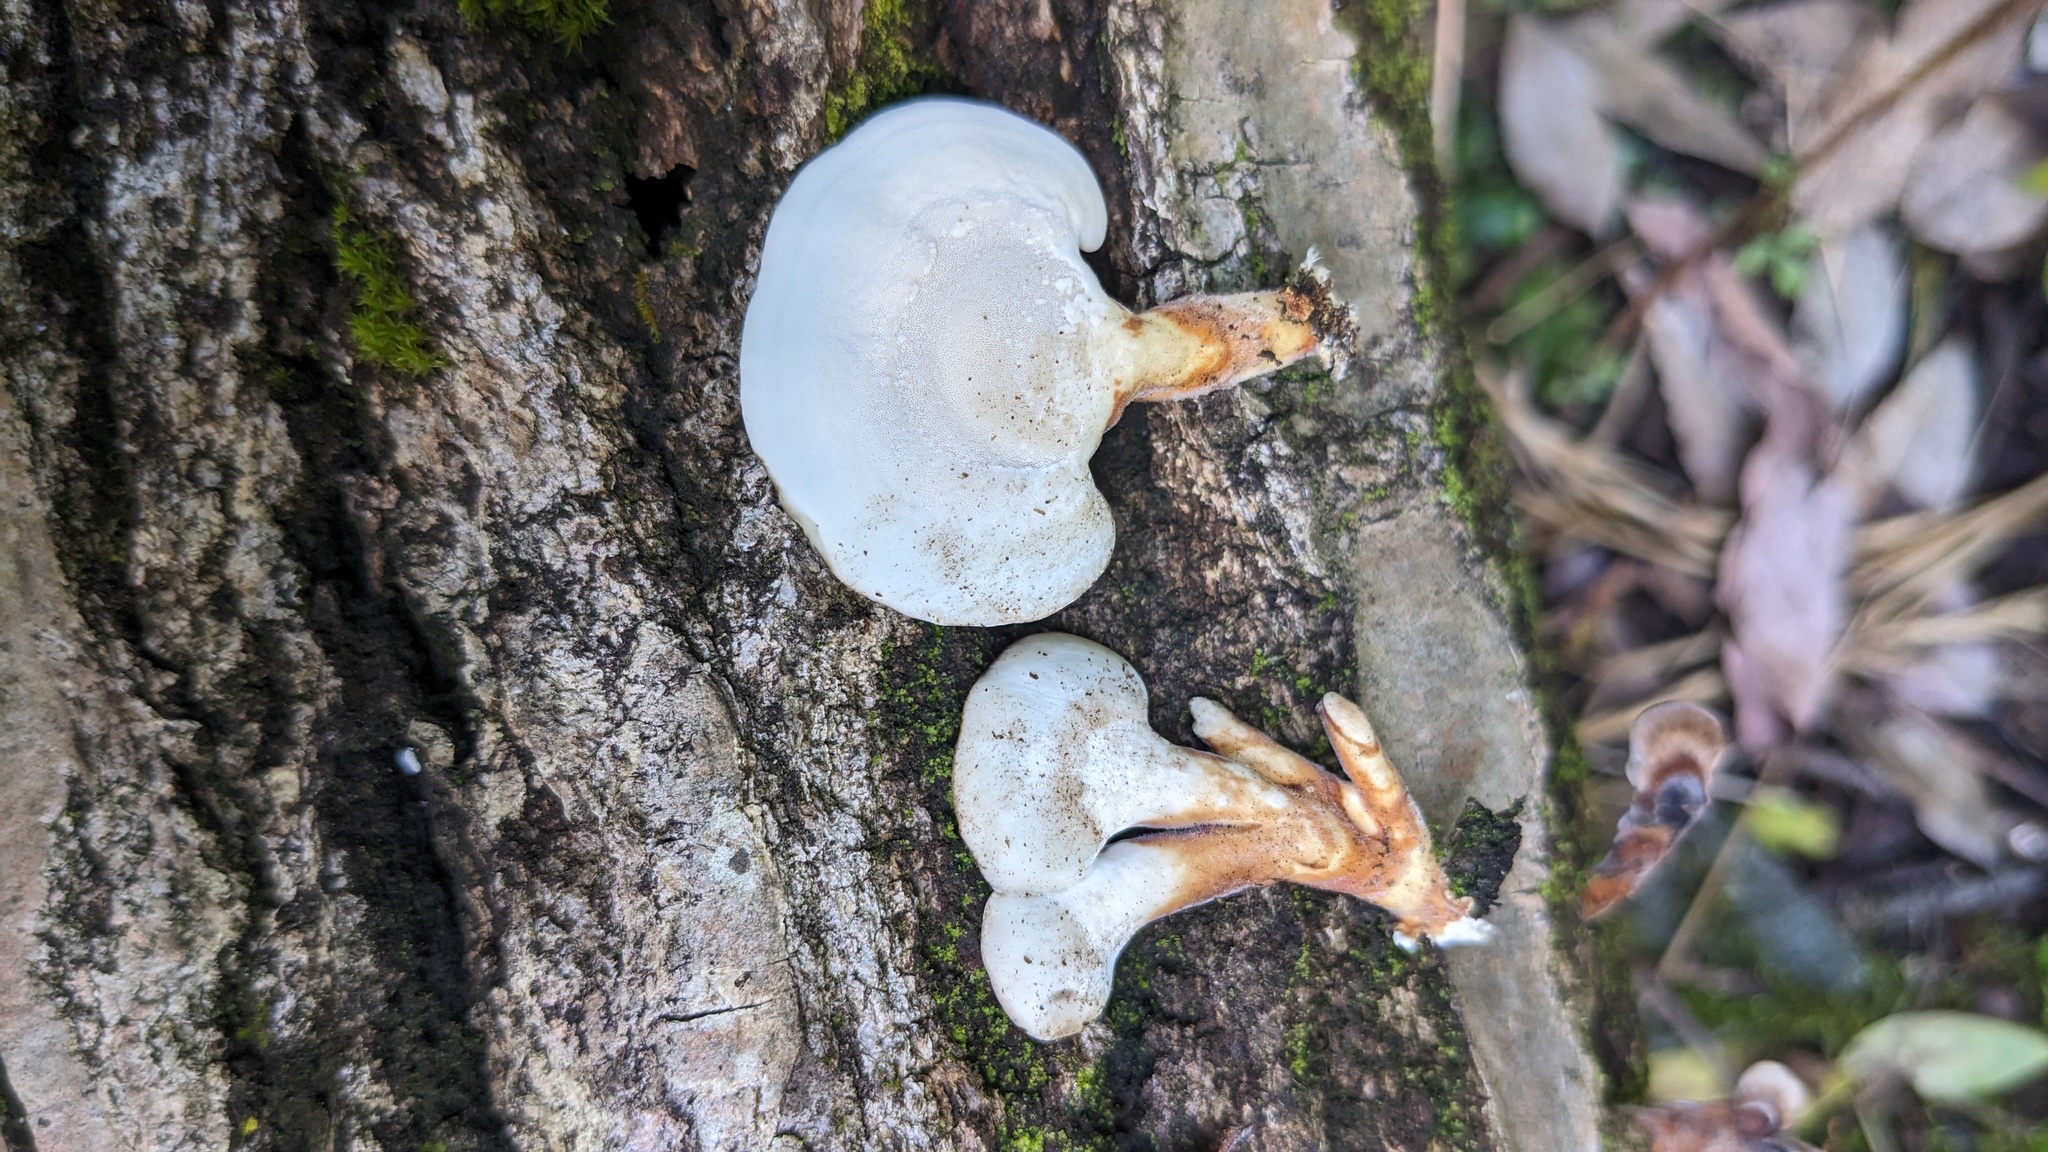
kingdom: Fungi
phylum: Basidiomycota
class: Agaricomycetes
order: Polyporales
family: Polyporaceae
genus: Microporus
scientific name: Microporus affinis
